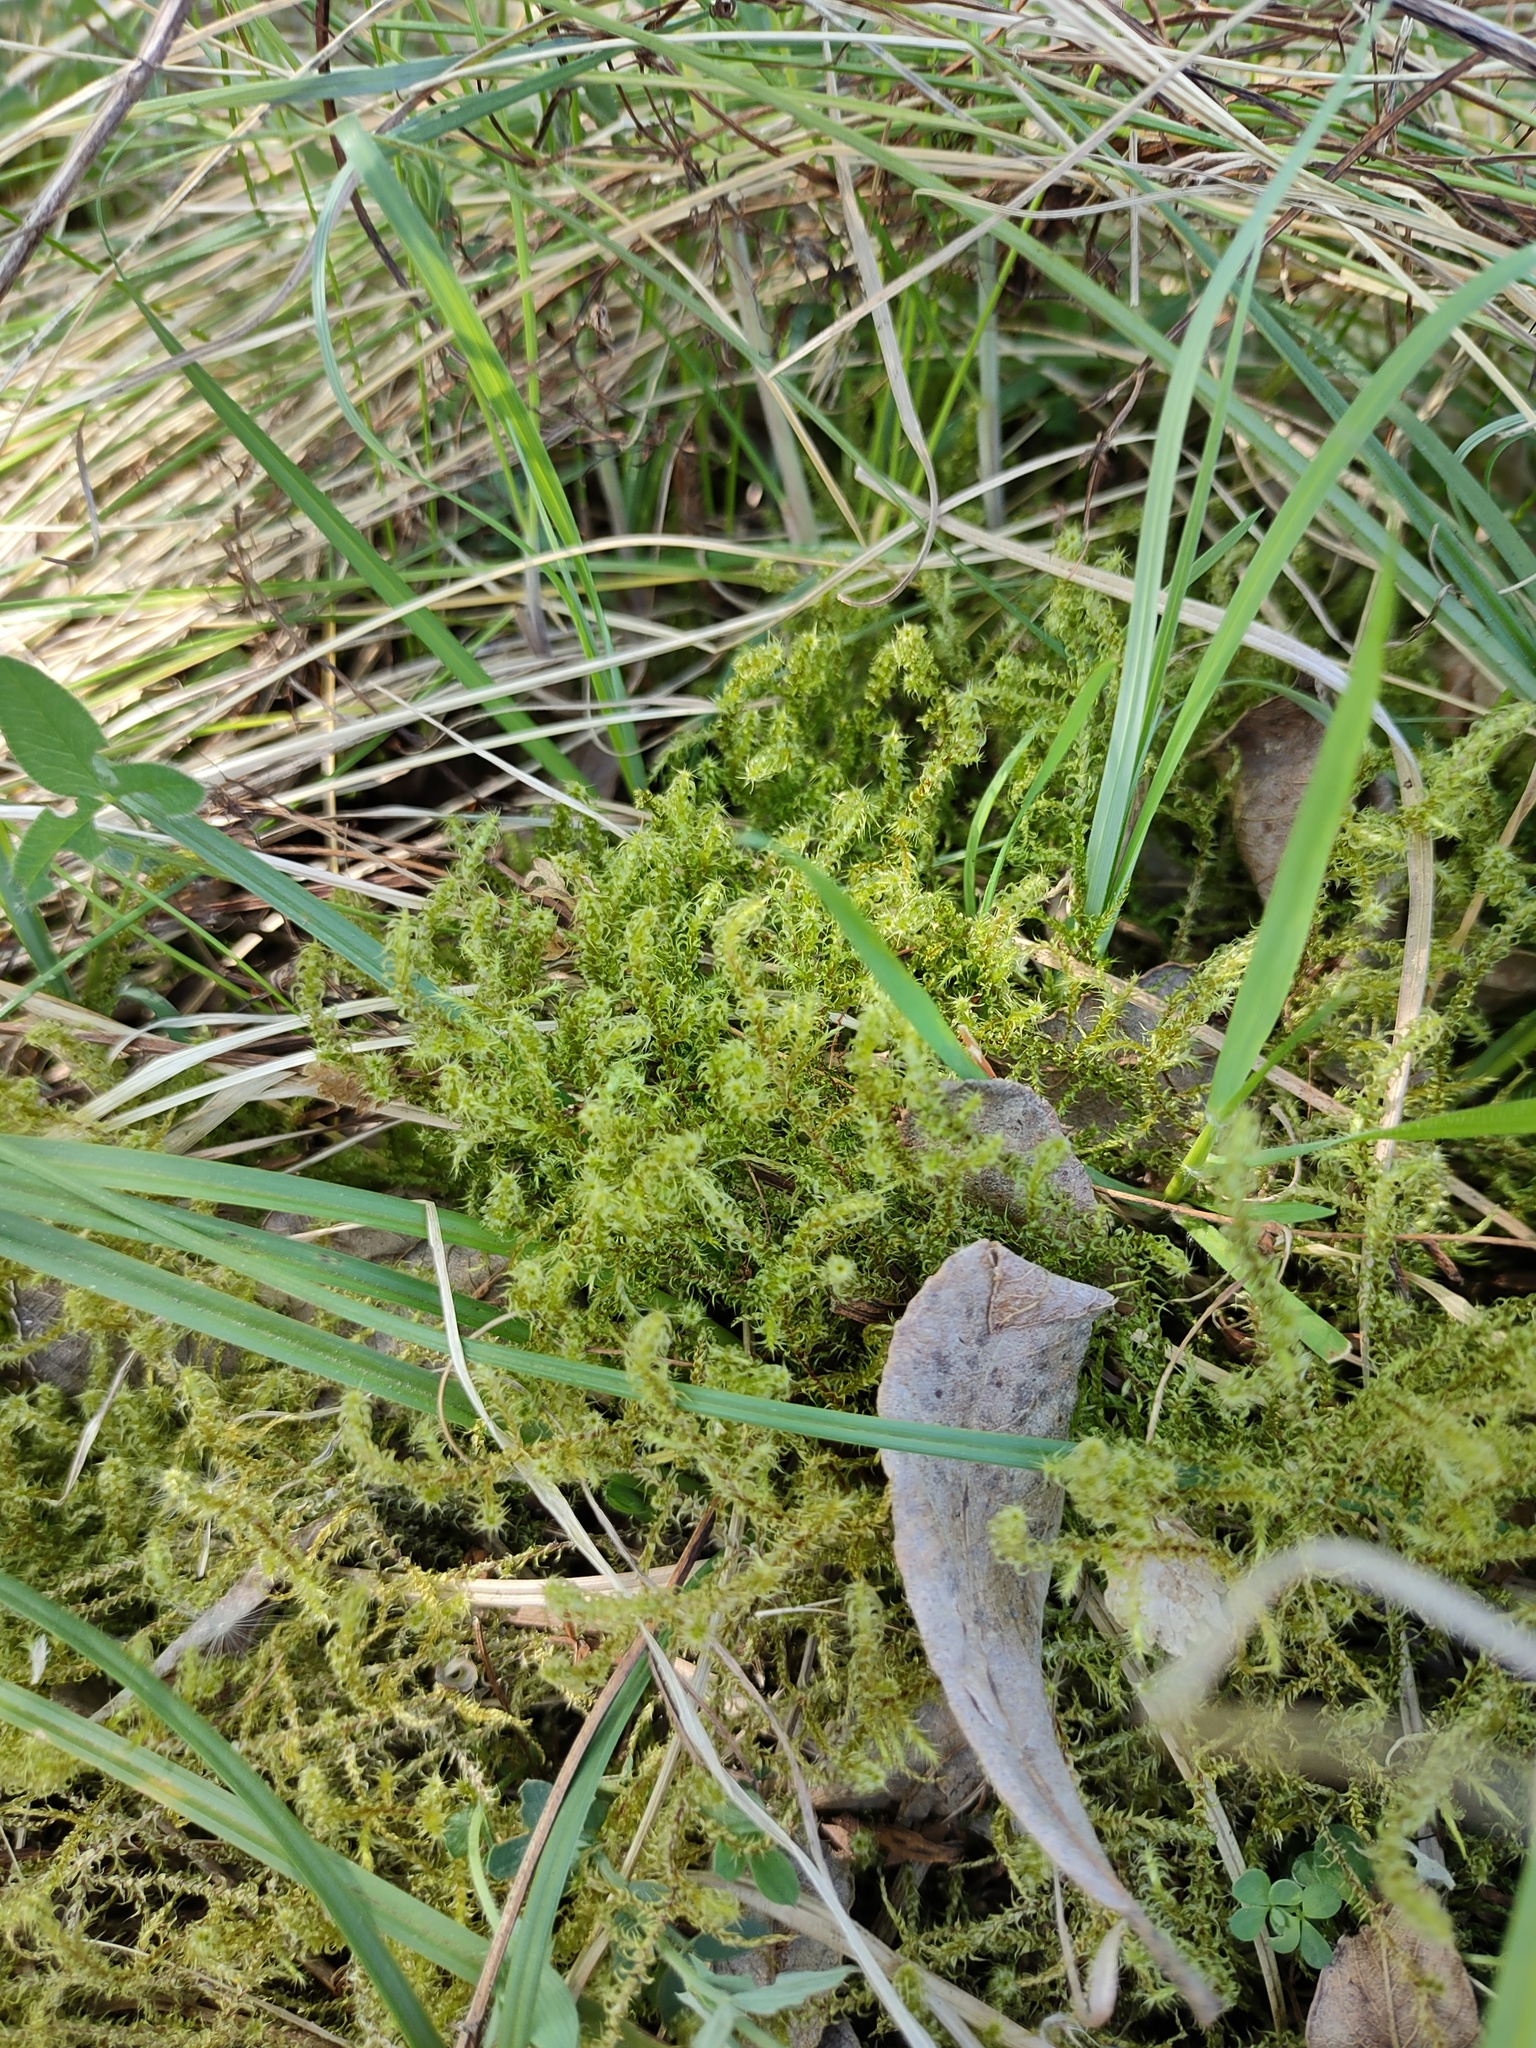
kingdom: Plantae
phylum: Bryophyta
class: Bryopsida
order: Hypnales
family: Hylocomiaceae
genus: Rhytidiadelphus
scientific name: Rhytidiadelphus squarrosus
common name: Springy turf-moss
